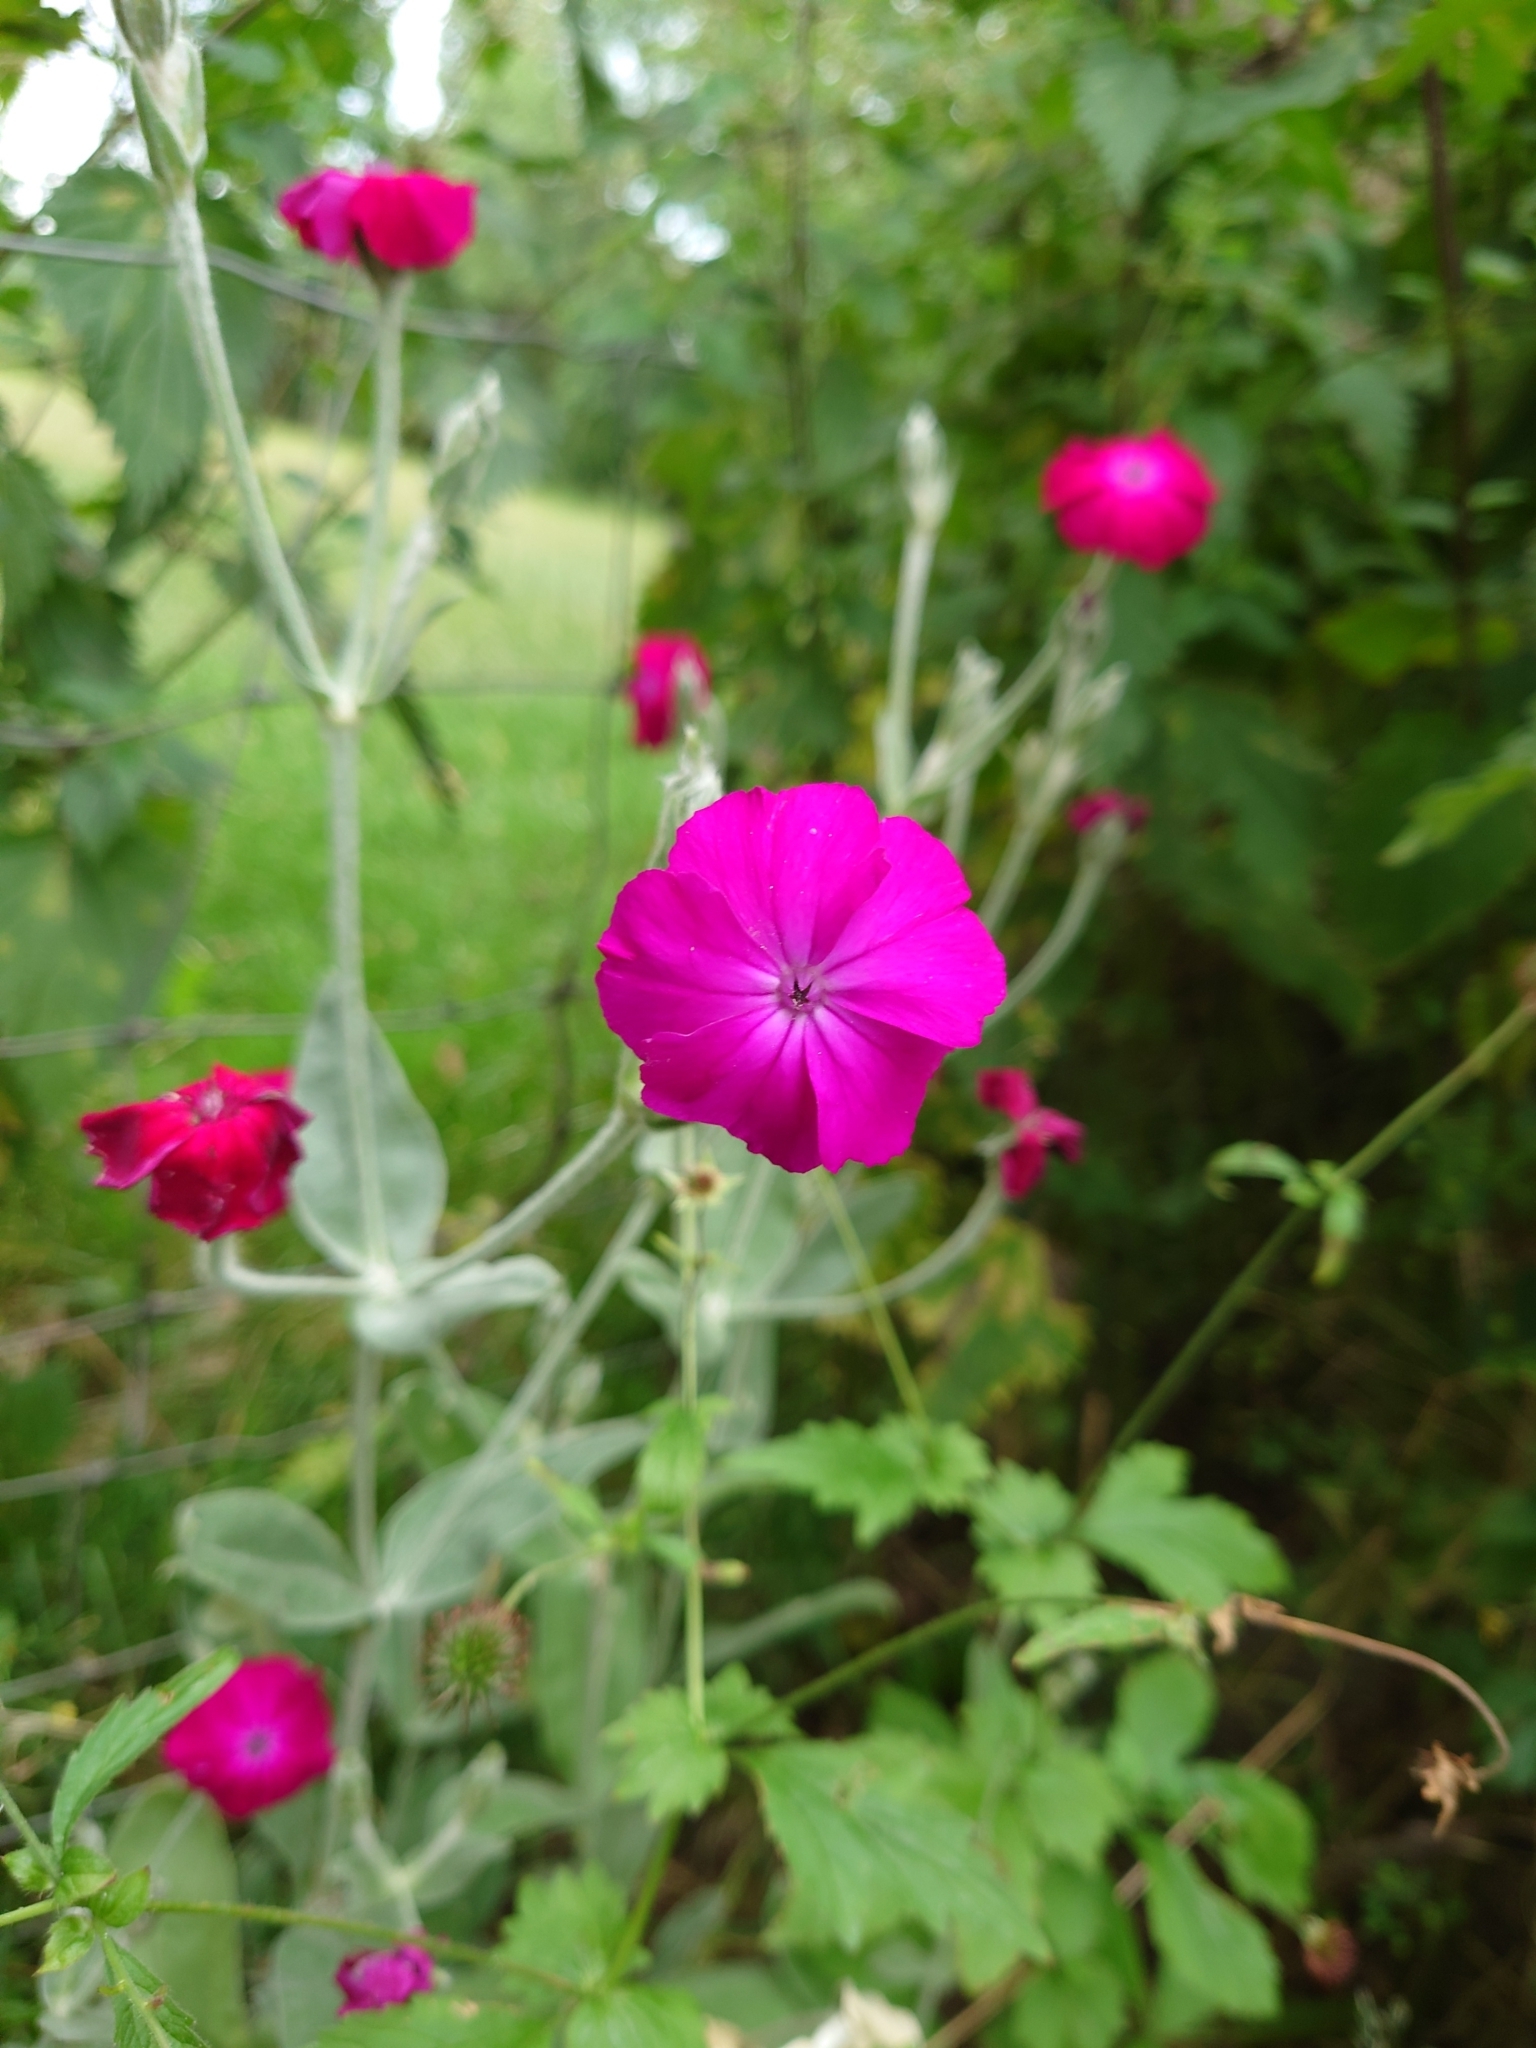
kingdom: Plantae
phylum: Tracheophyta
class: Magnoliopsida
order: Caryophyllales
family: Caryophyllaceae
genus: Silene
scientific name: Silene coronaria
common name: Rose campion
